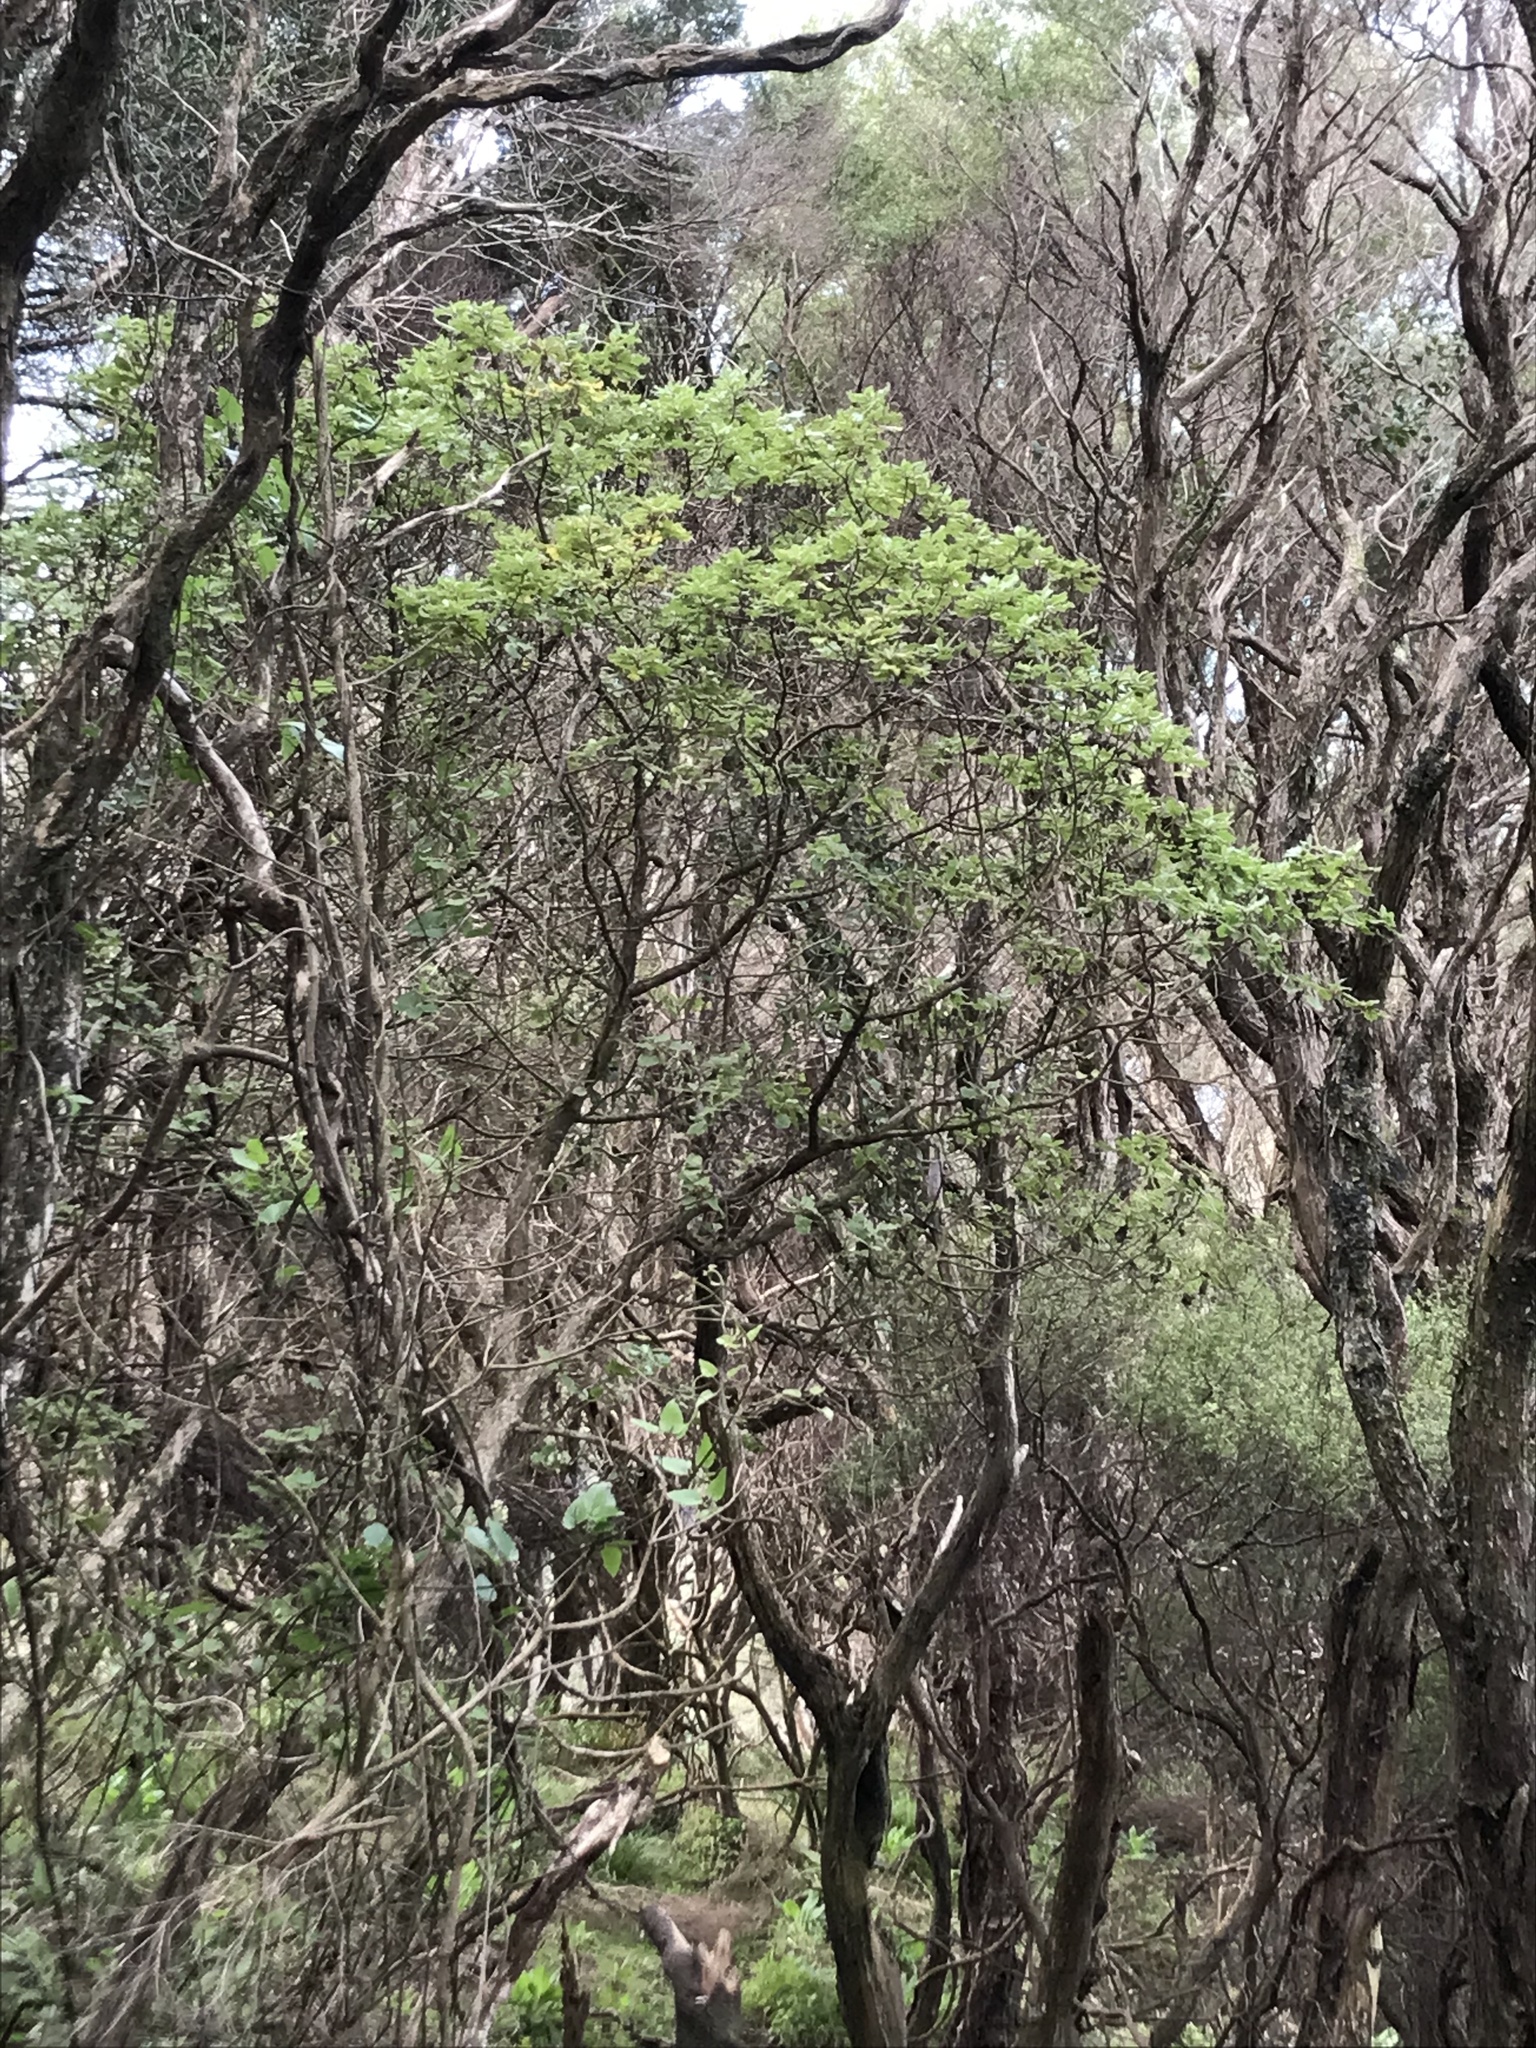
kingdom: Plantae
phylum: Tracheophyta
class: Magnoliopsida
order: Asterales
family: Asteraceae
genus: Brachyglottis
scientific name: Brachyglottis pentacopa
